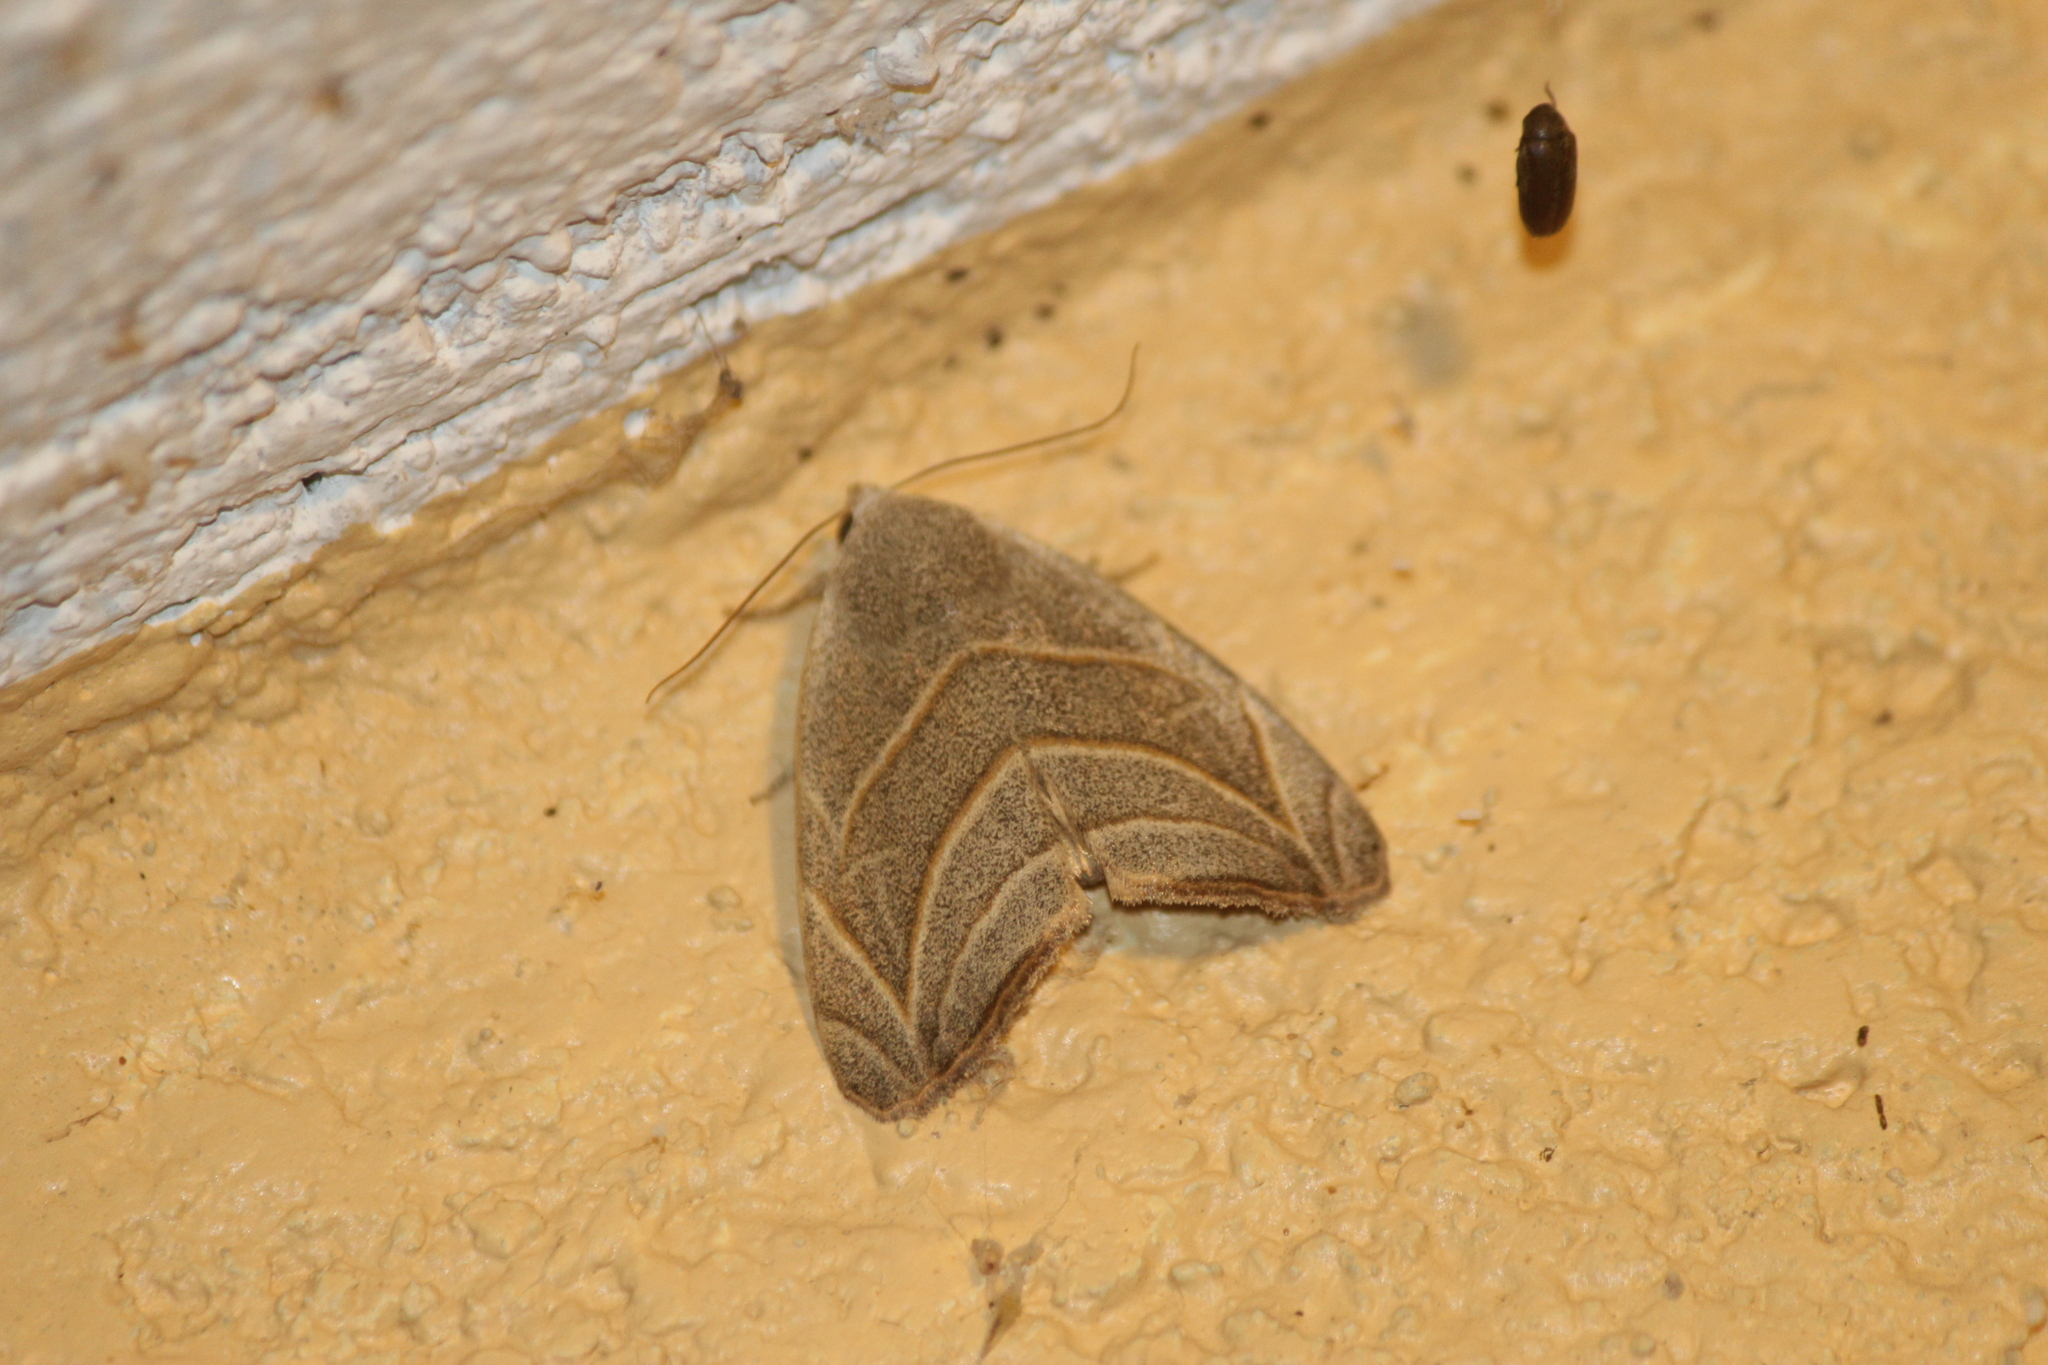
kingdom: Animalia
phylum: Arthropoda
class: Insecta
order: Lepidoptera
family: Noctuidae
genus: Bagisara
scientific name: Bagisara laverna
